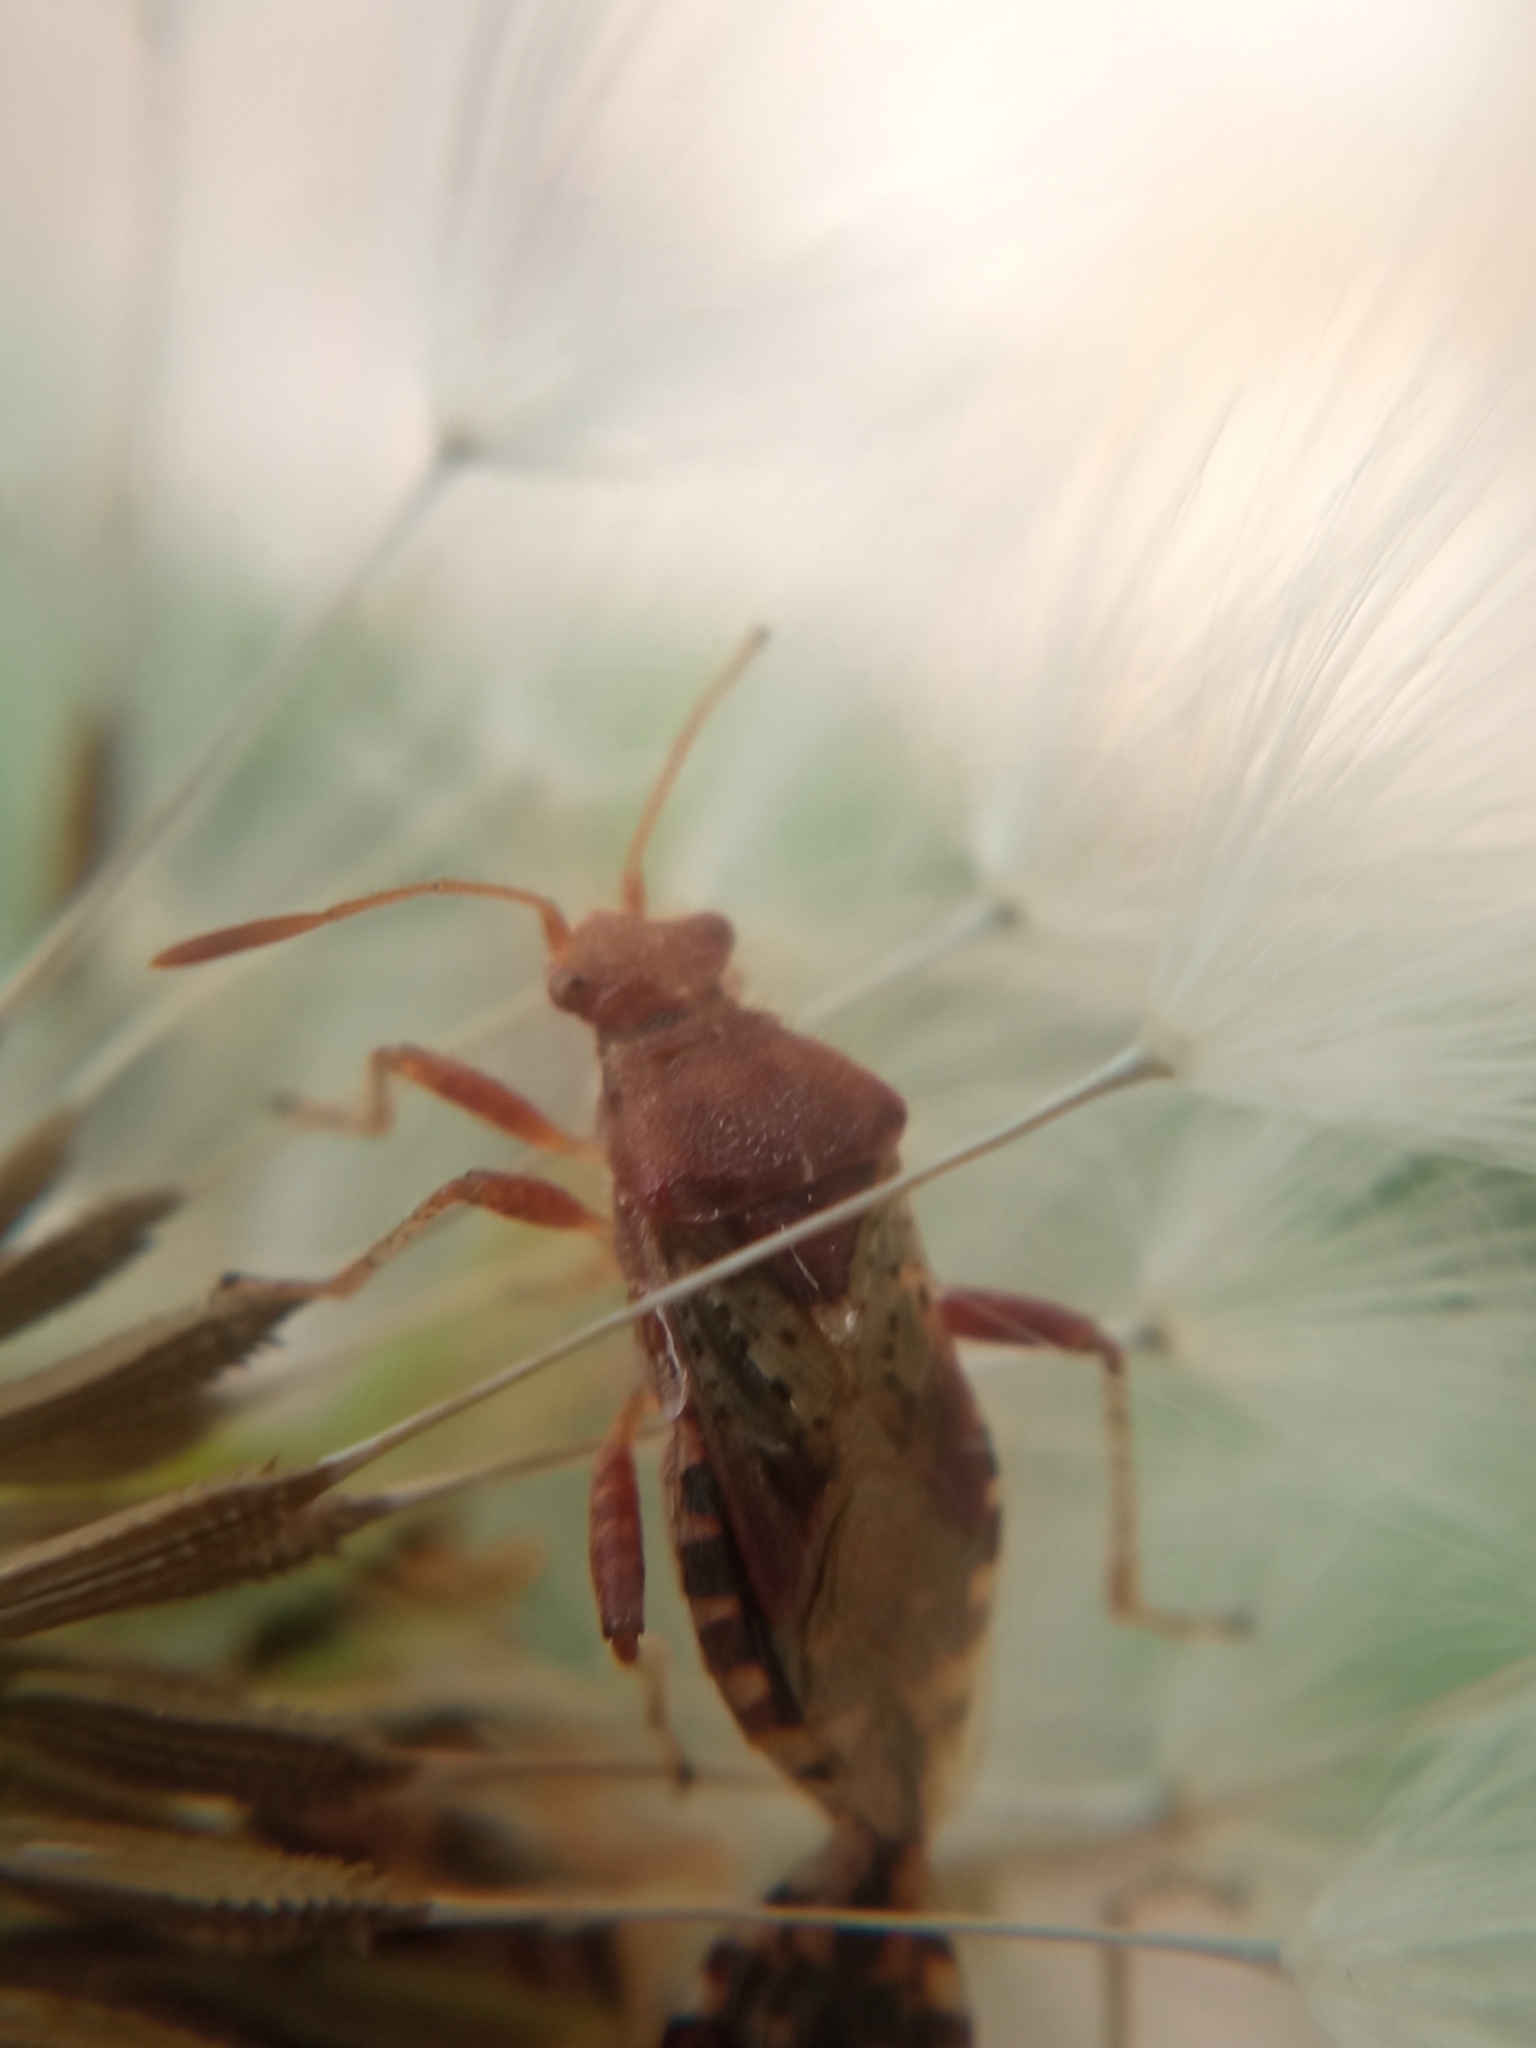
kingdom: Animalia
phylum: Arthropoda
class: Insecta
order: Hemiptera
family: Rhopalidae
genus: Rhopalus
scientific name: Rhopalus subrufus
